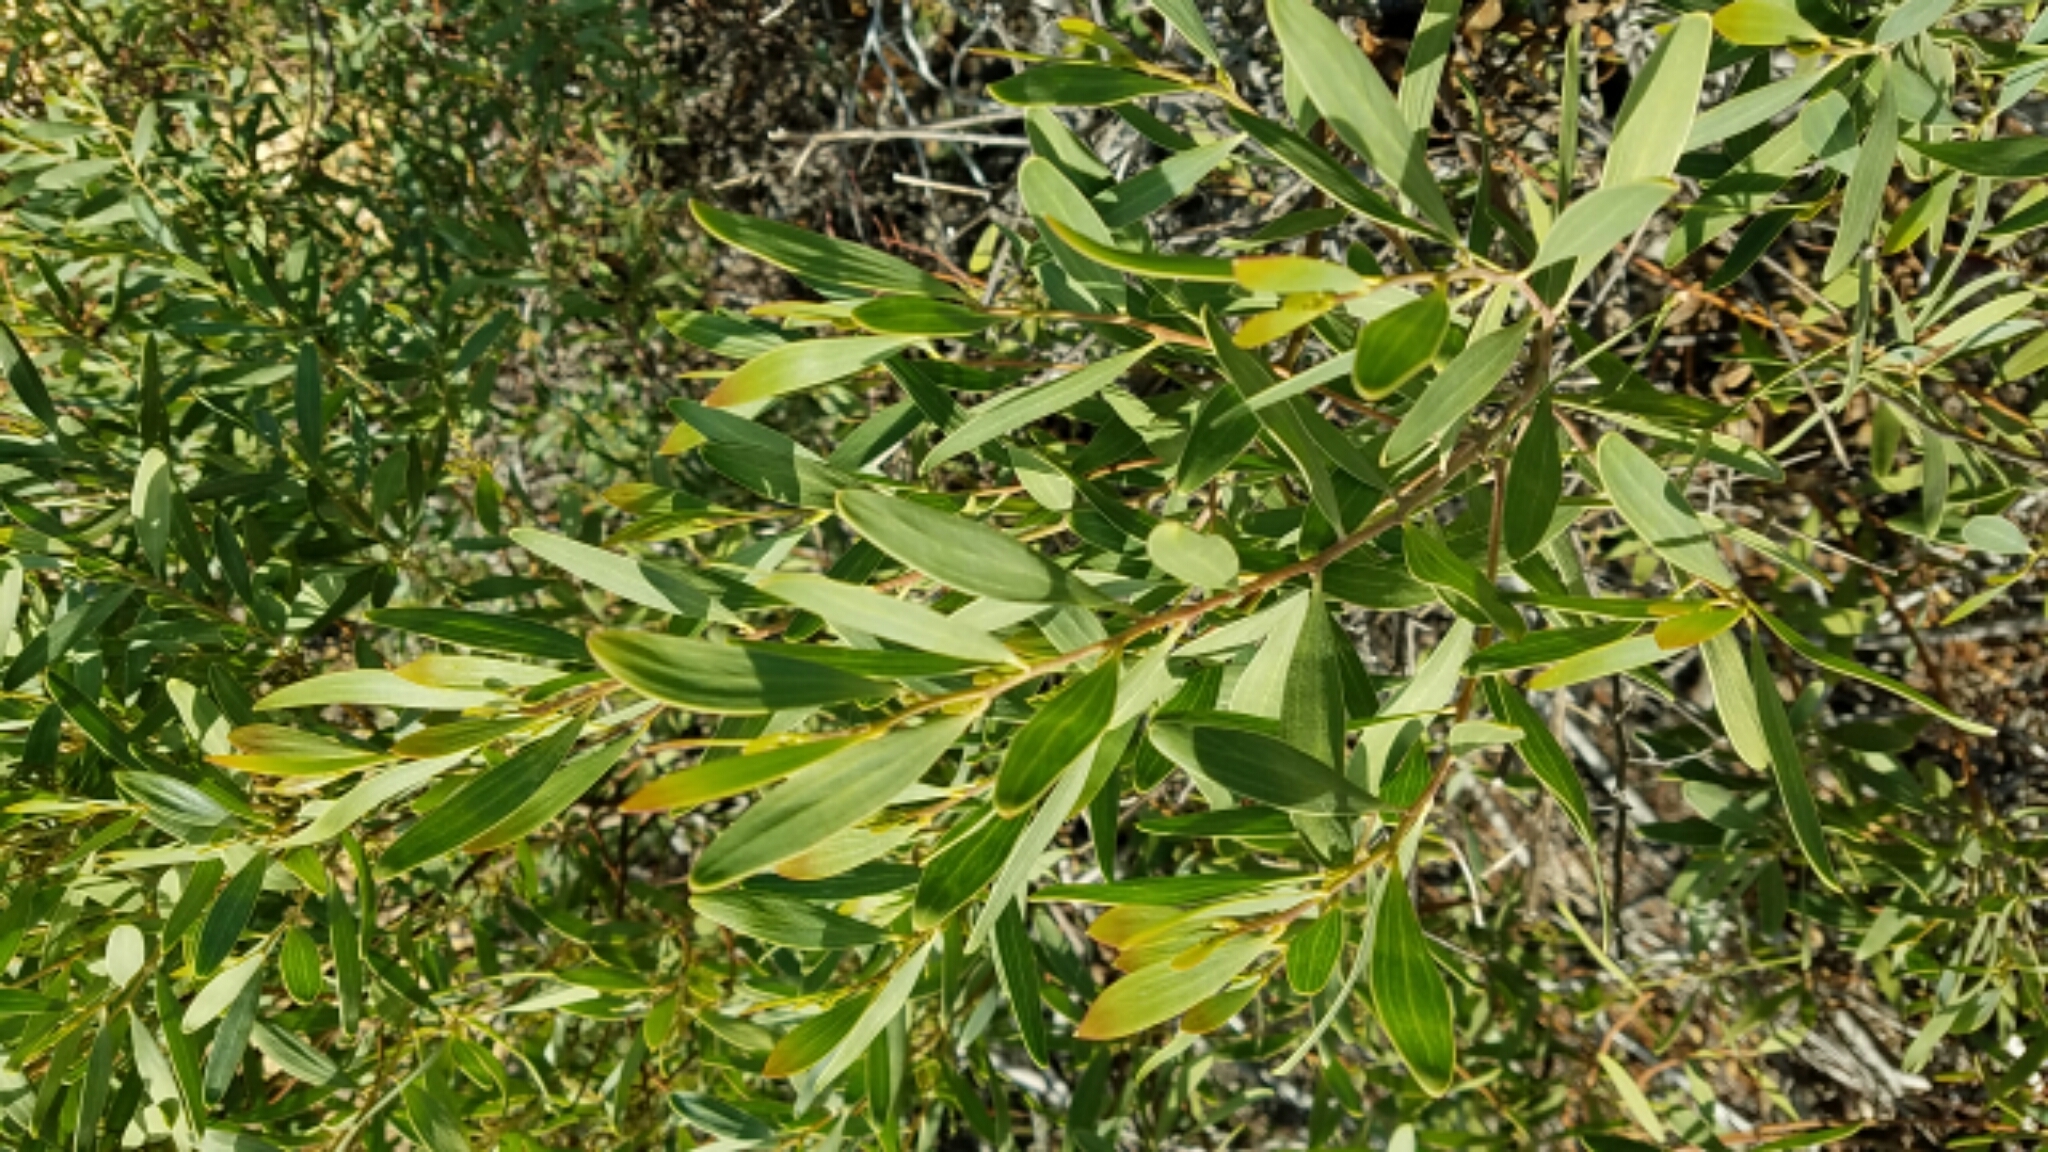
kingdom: Plantae
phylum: Tracheophyta
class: Magnoliopsida
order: Fabales
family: Fabaceae
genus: Acacia
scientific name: Acacia melanoxylon
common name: Blackwood
